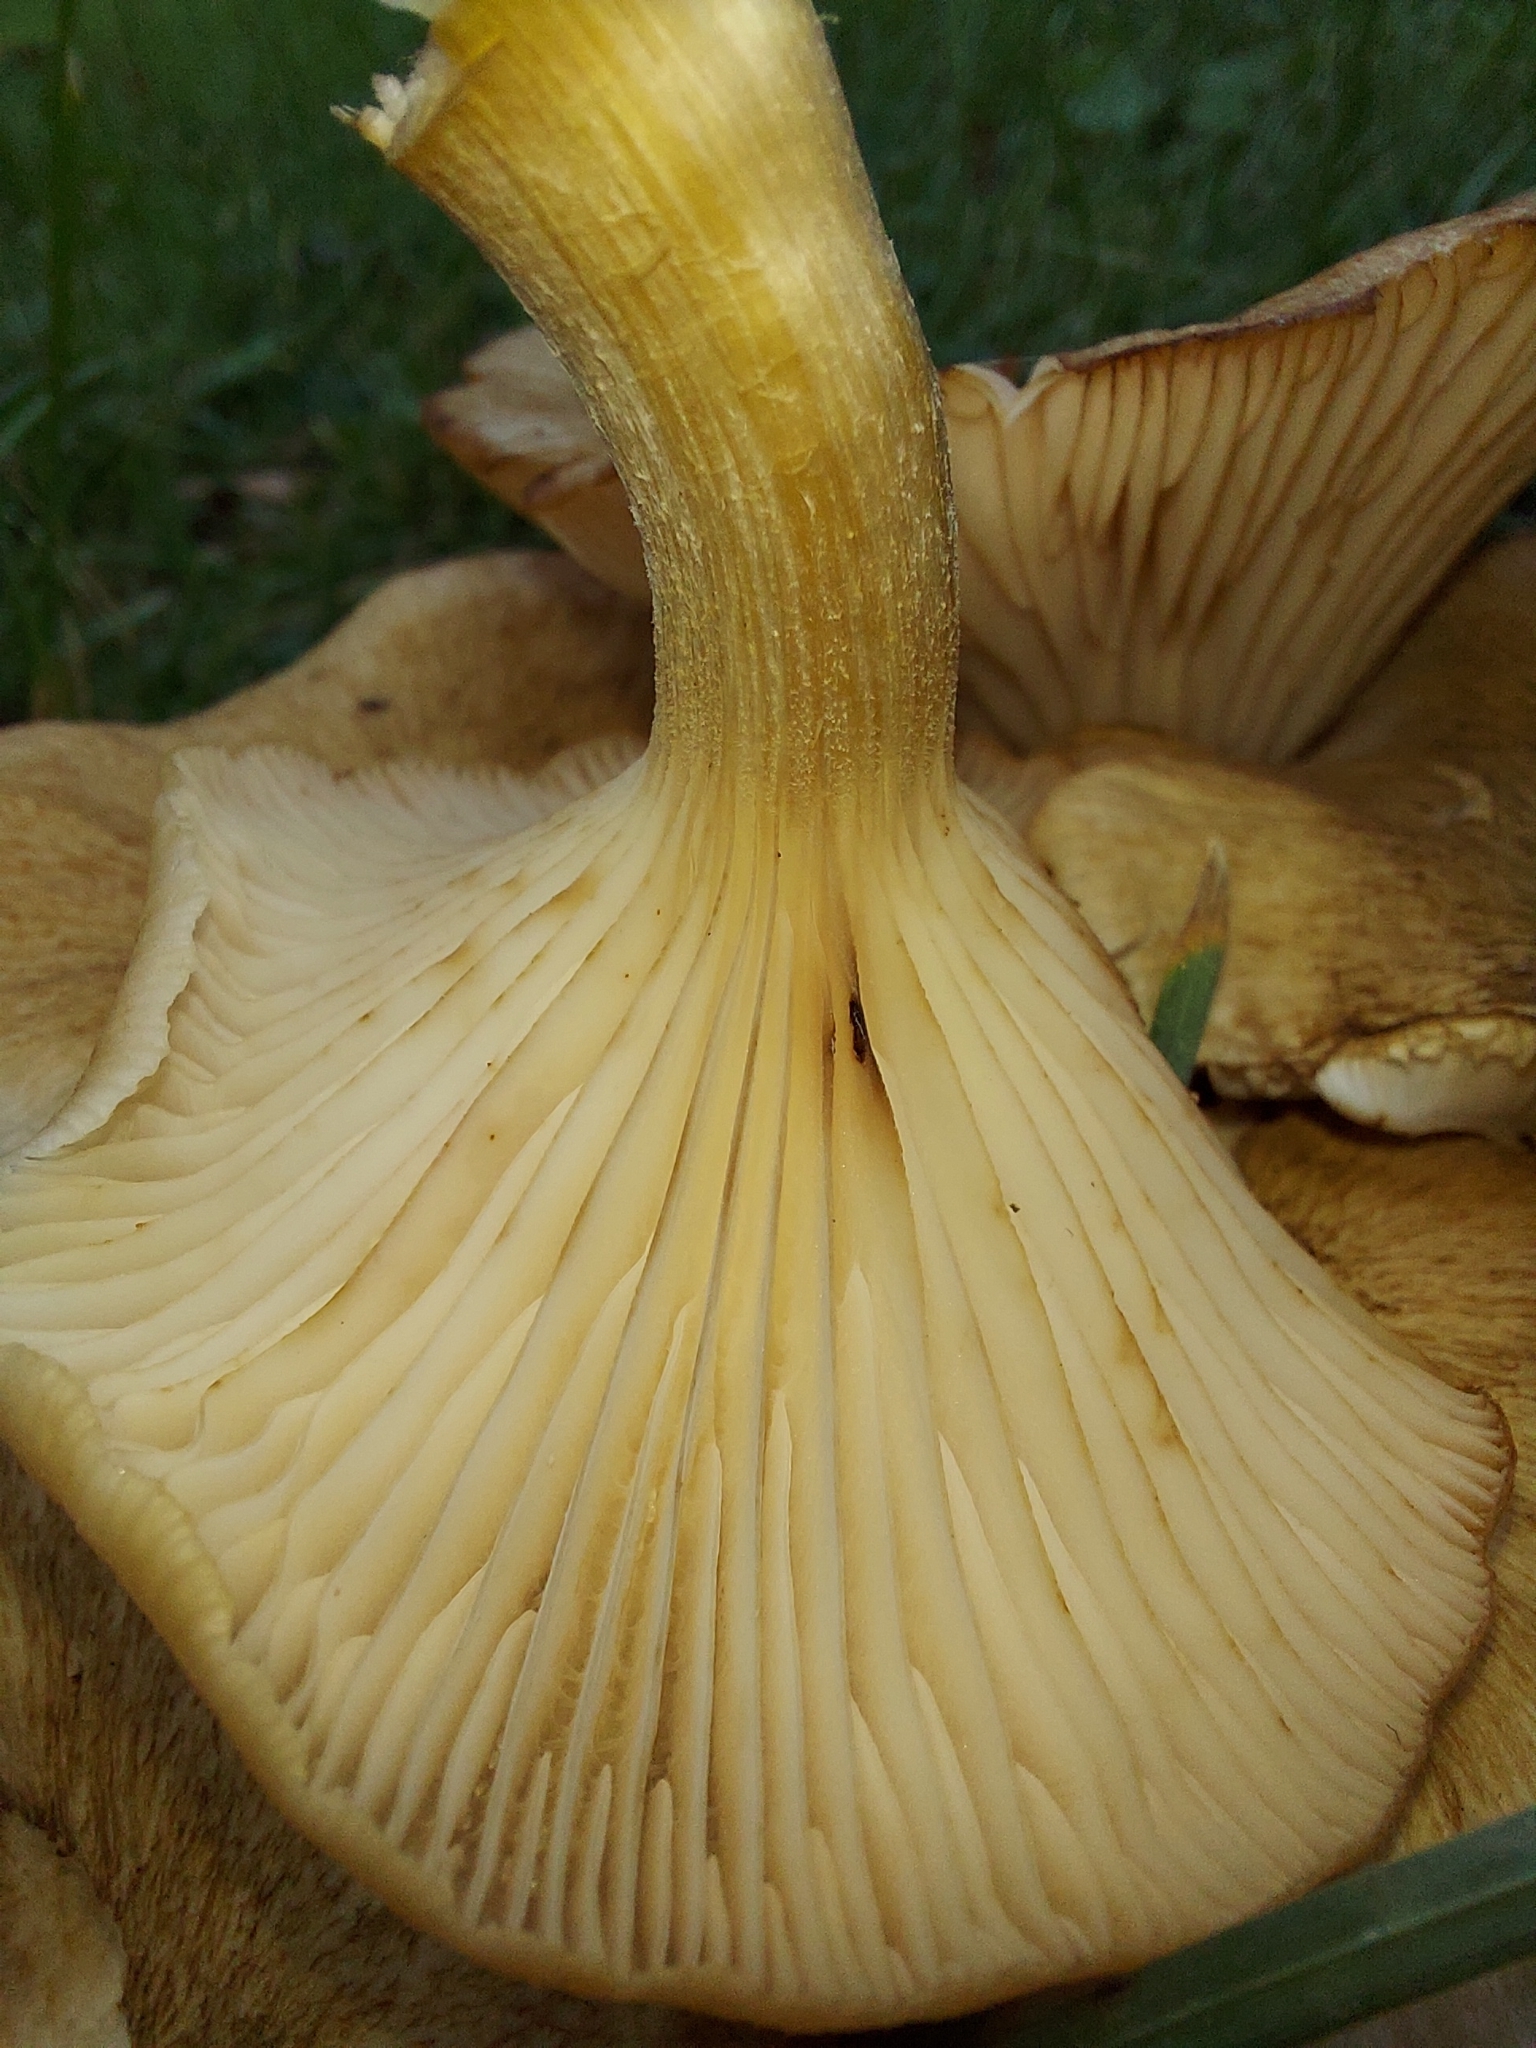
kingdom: Fungi
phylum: Basidiomycota
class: Agaricomycetes
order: Agaricales
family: Physalacriaceae
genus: Desarmillaria
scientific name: Desarmillaria caespitosa
